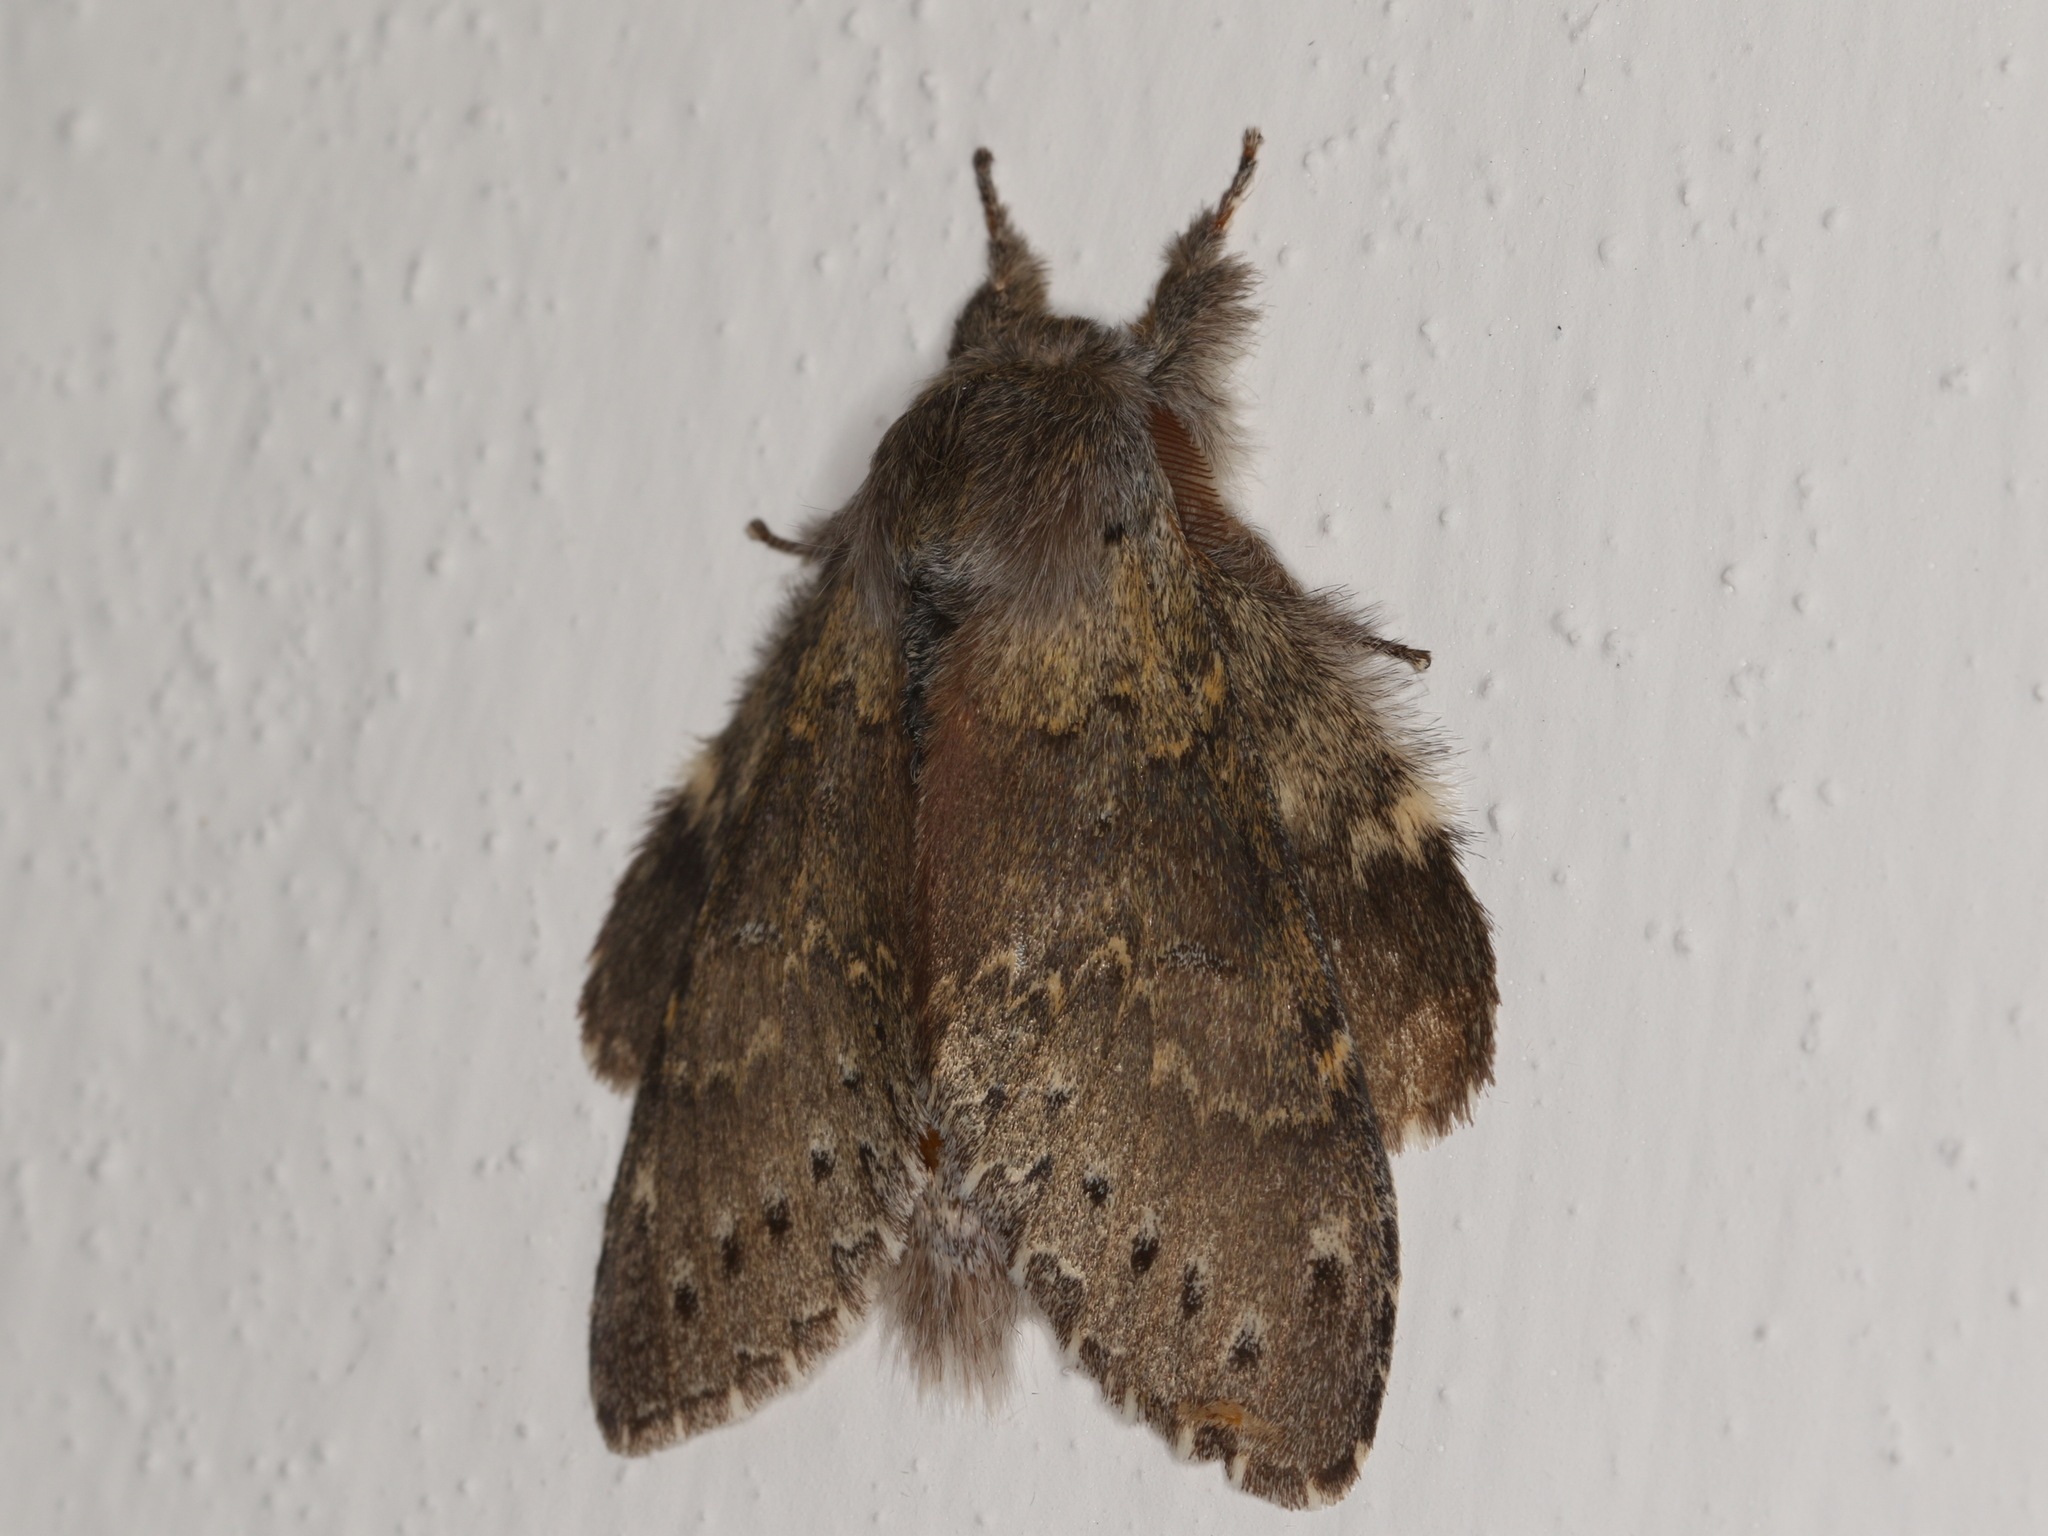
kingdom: Animalia
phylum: Arthropoda
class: Insecta
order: Lepidoptera
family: Notodontidae
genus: Stauropus
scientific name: Stauropus fagi
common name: Lobster moth
